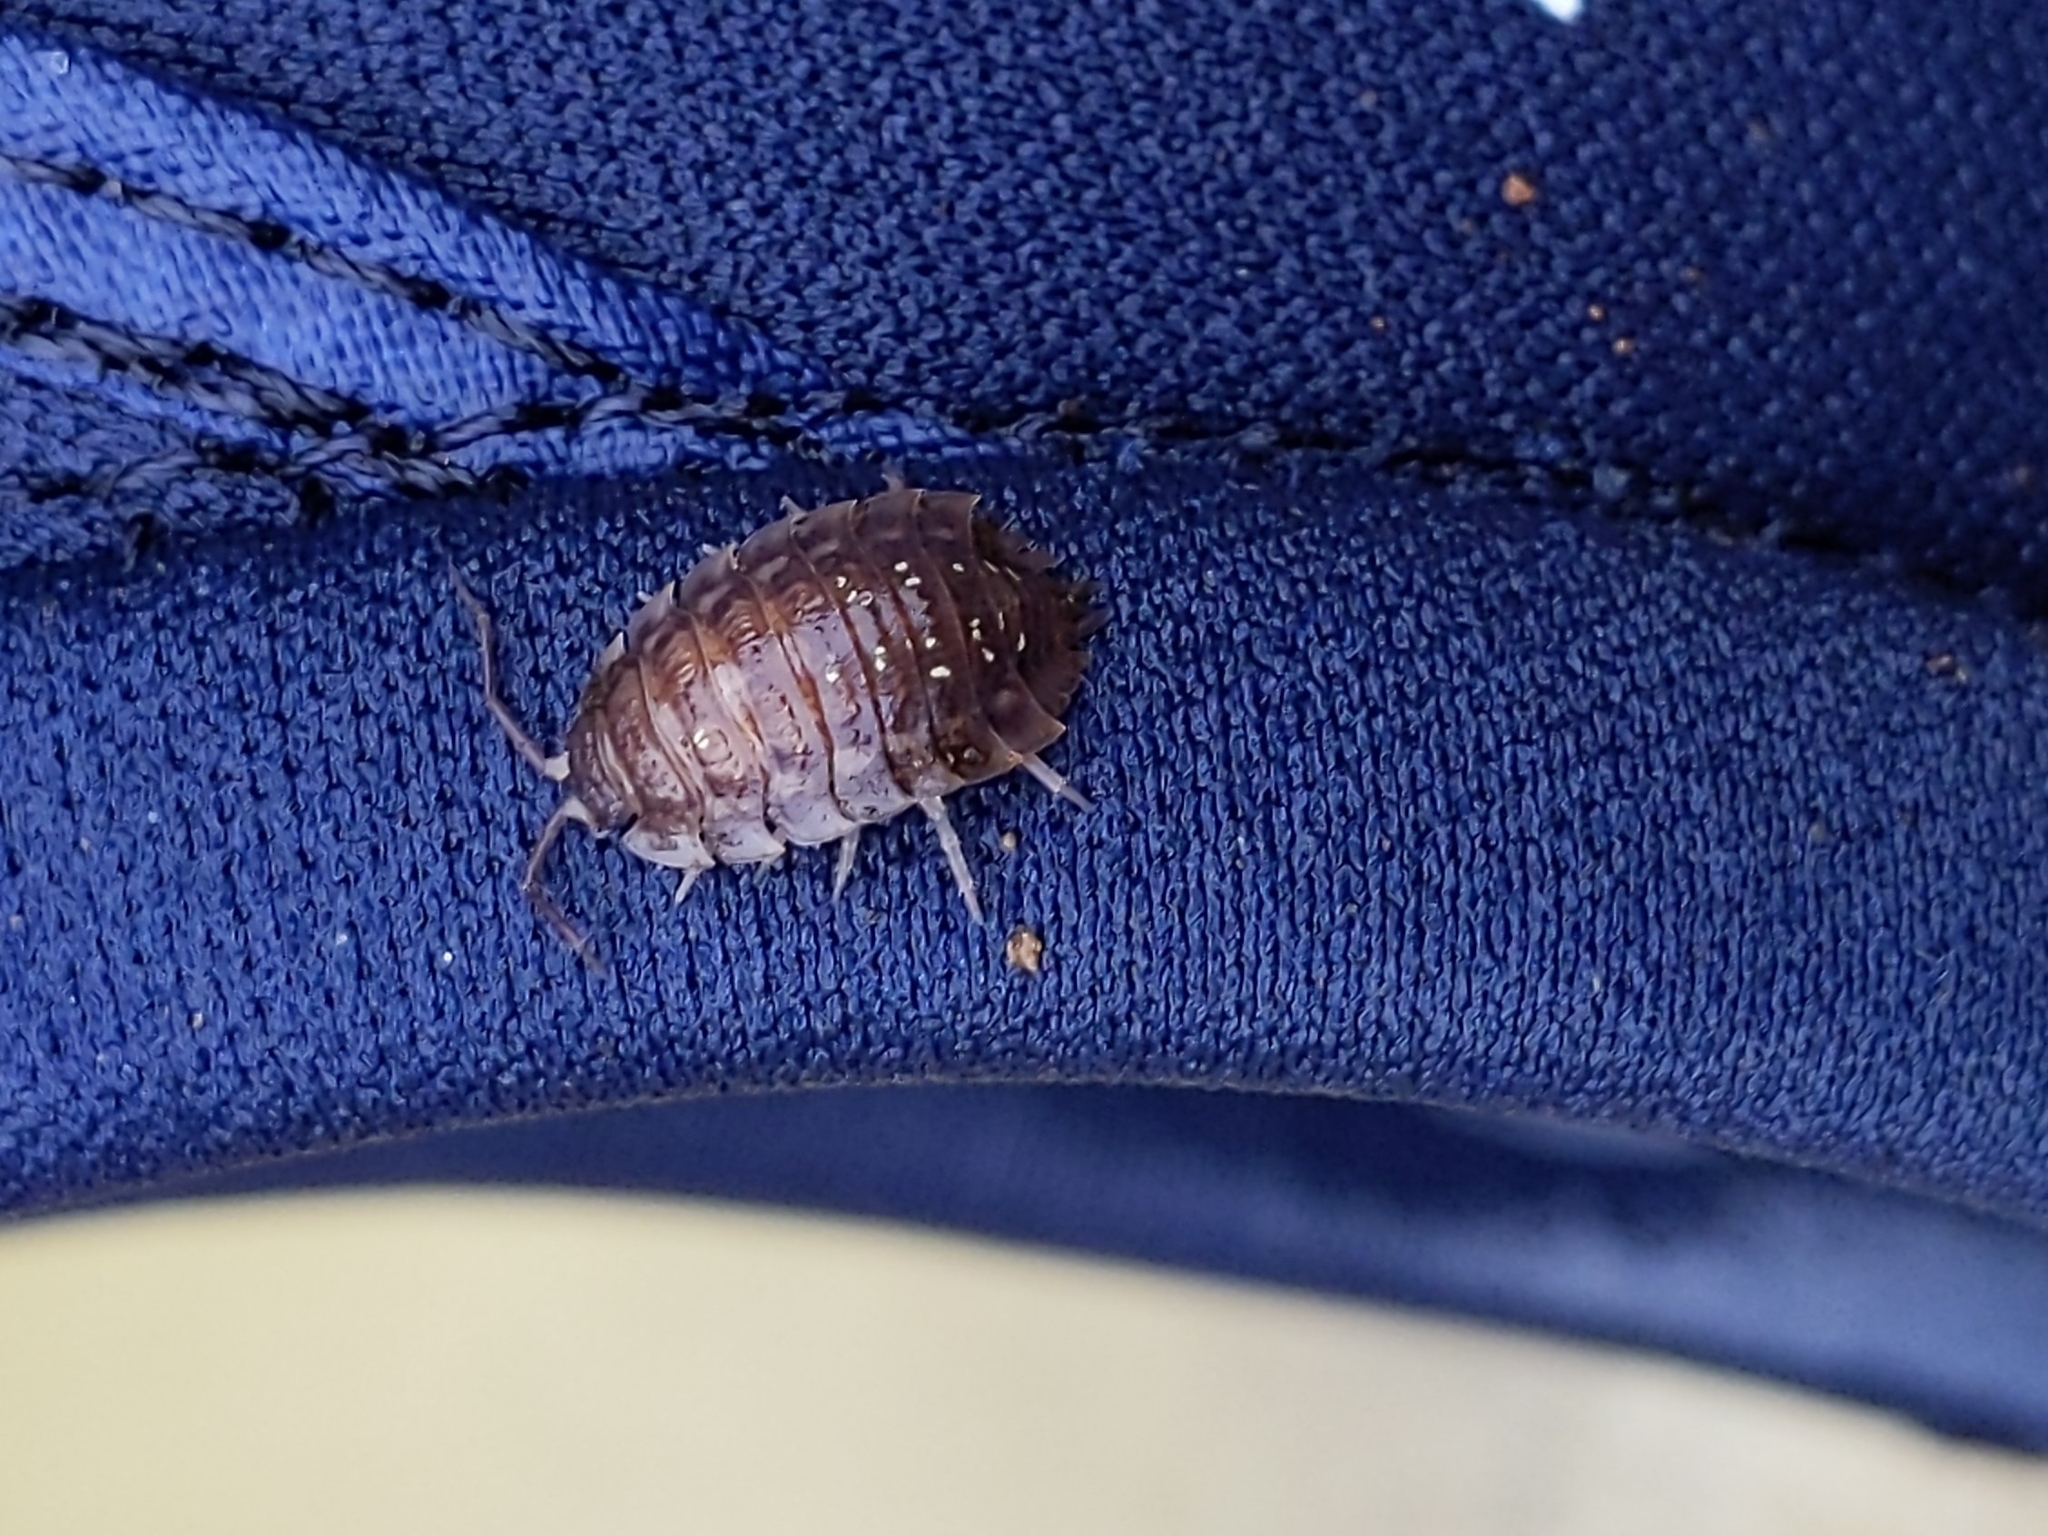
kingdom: Animalia
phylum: Arthropoda
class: Malacostraca
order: Isopoda
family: Oniscidae
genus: Oniscus
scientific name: Oniscus asellus
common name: Common shiny woodlouse
